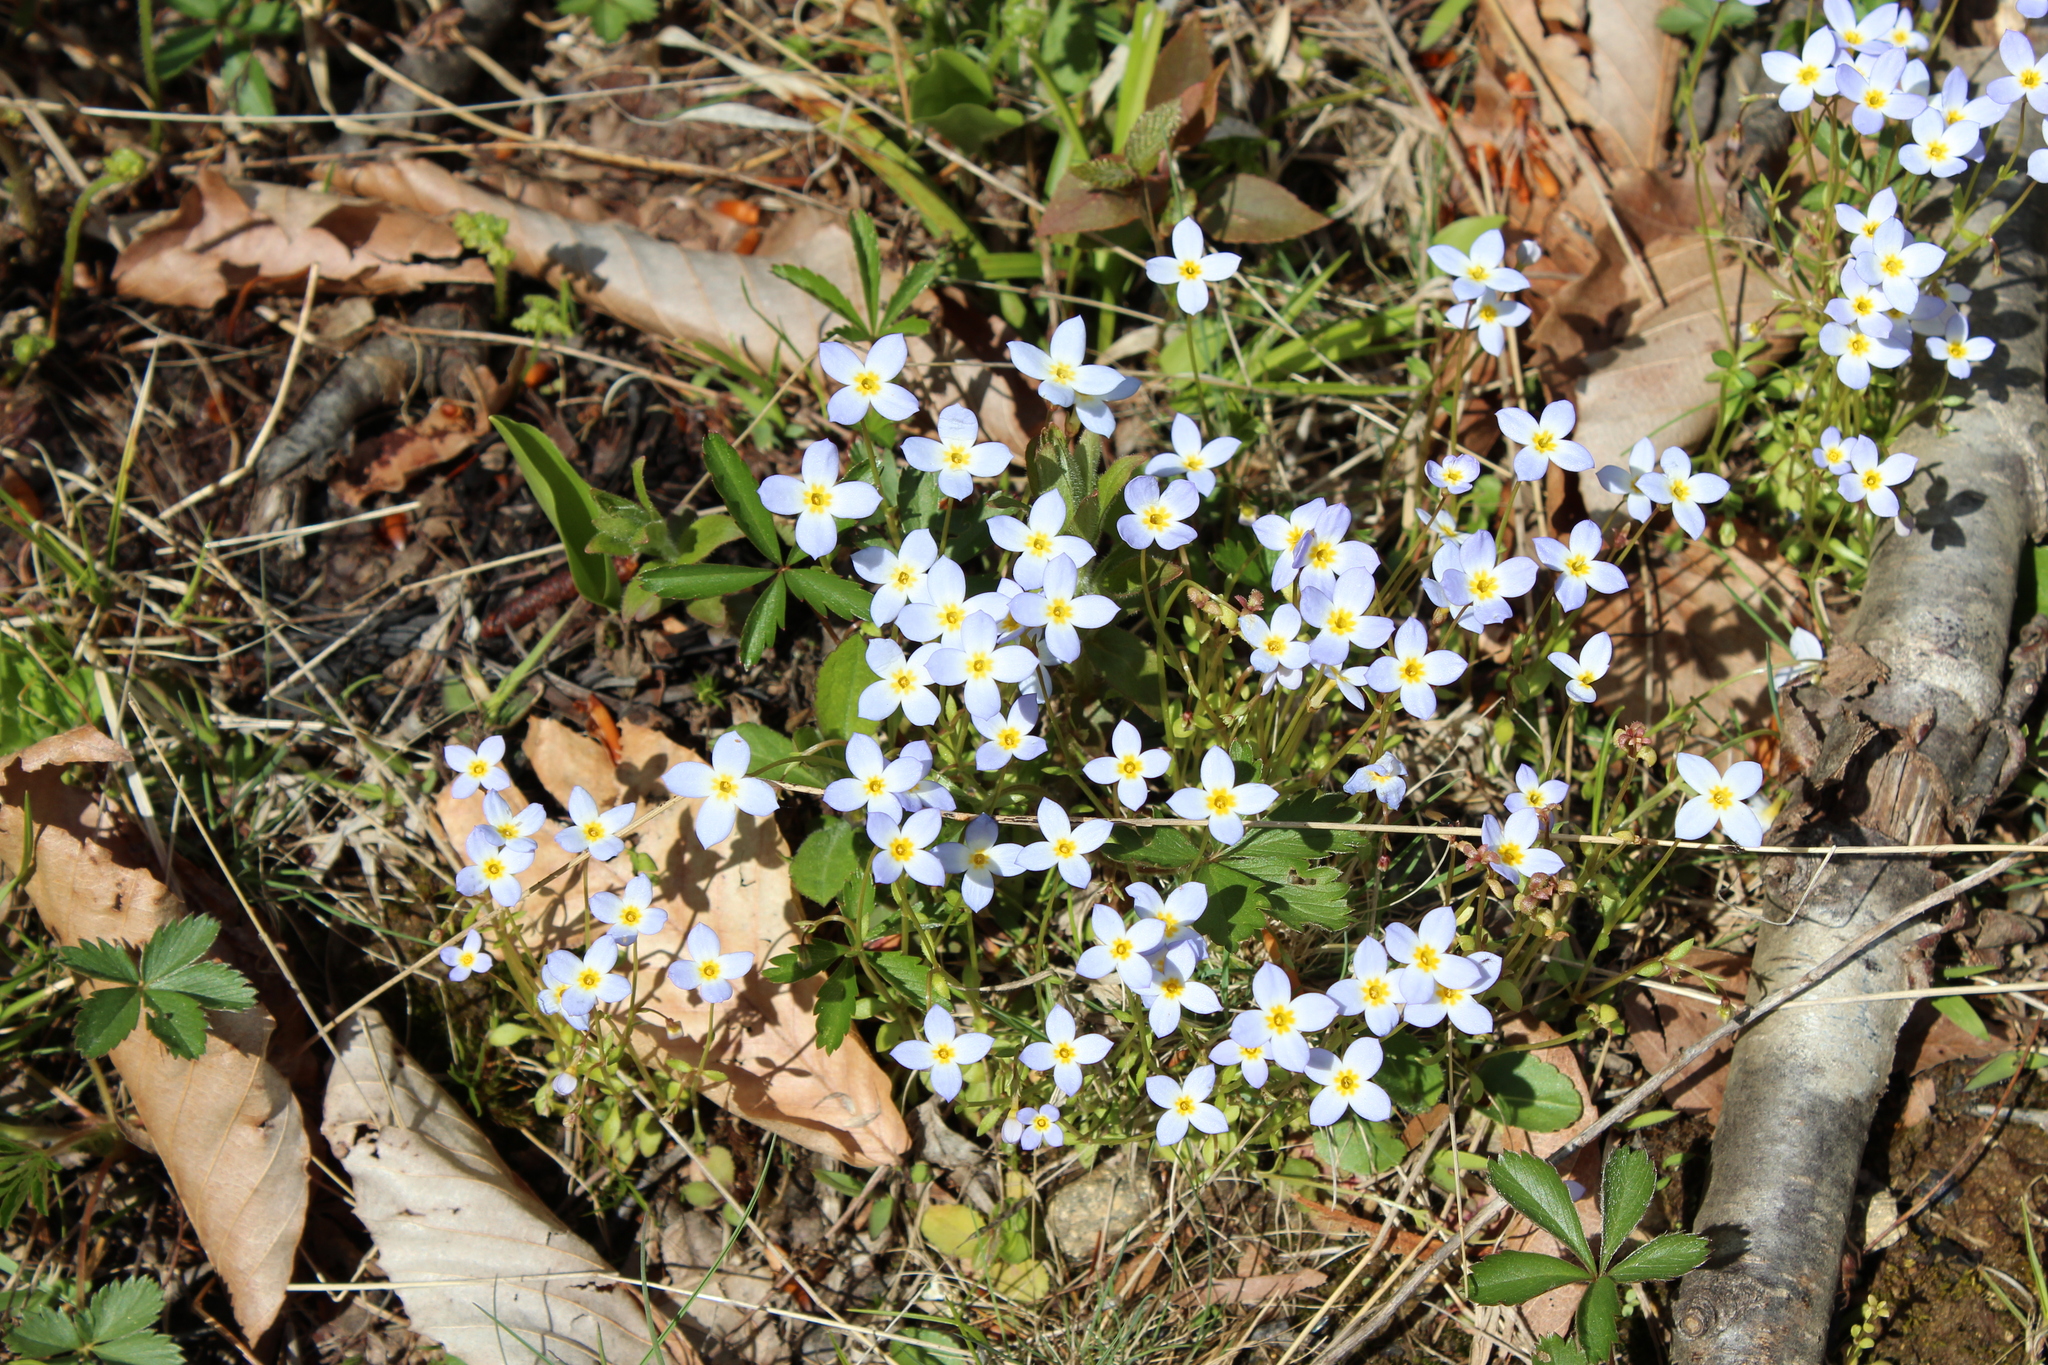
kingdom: Plantae
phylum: Tracheophyta
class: Magnoliopsida
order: Gentianales
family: Rubiaceae
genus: Houstonia
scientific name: Houstonia caerulea
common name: Bluets
